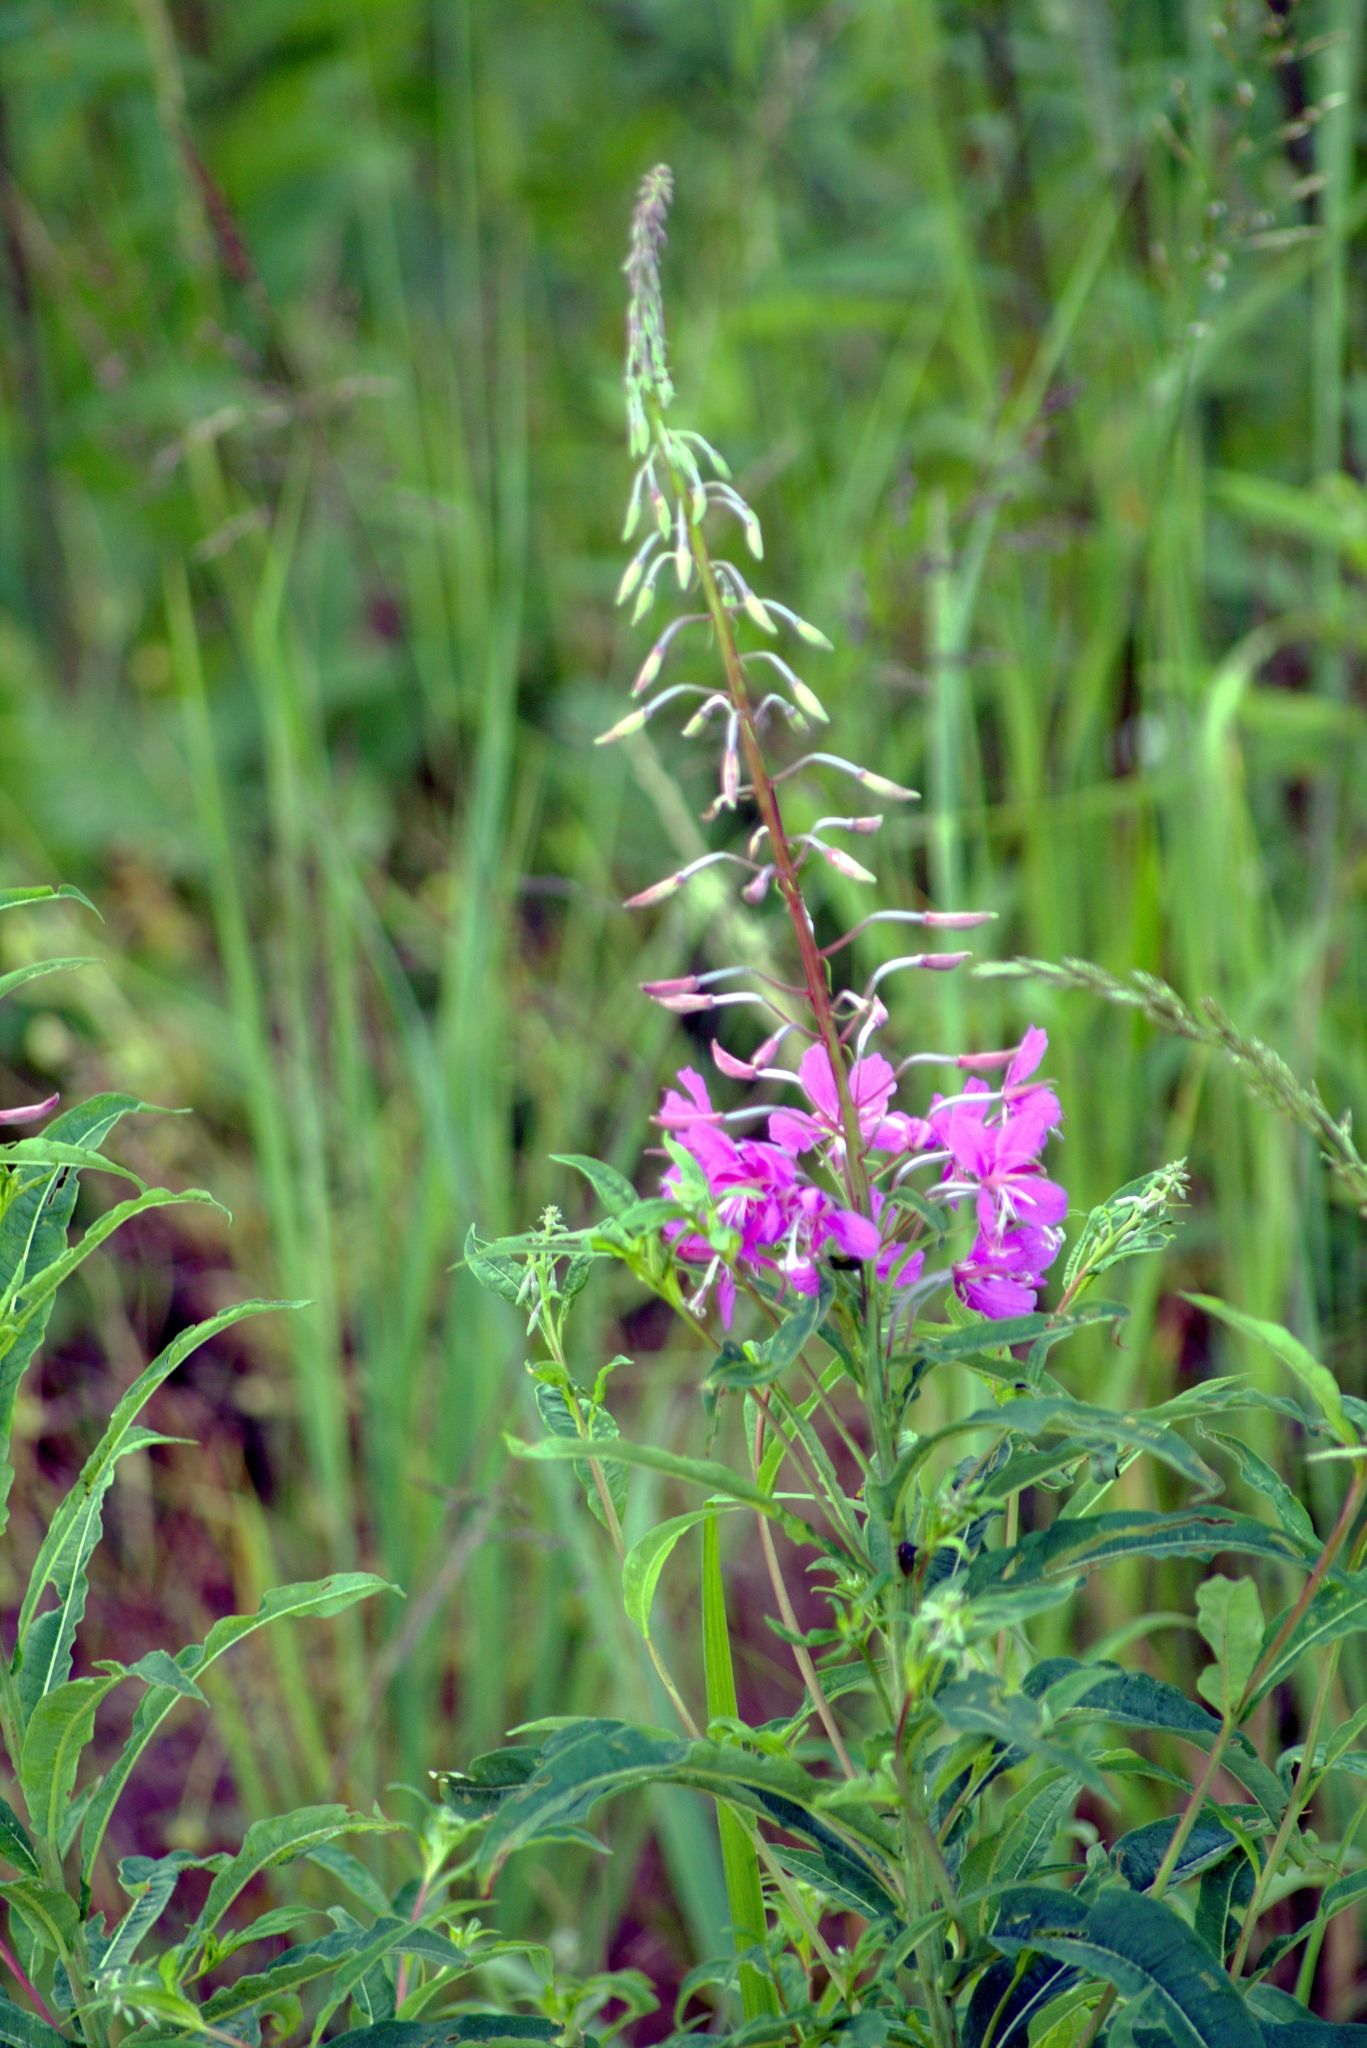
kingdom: Plantae
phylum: Tracheophyta
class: Magnoliopsida
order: Myrtales
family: Onagraceae
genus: Chamaenerion
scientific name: Chamaenerion angustifolium
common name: Fireweed
